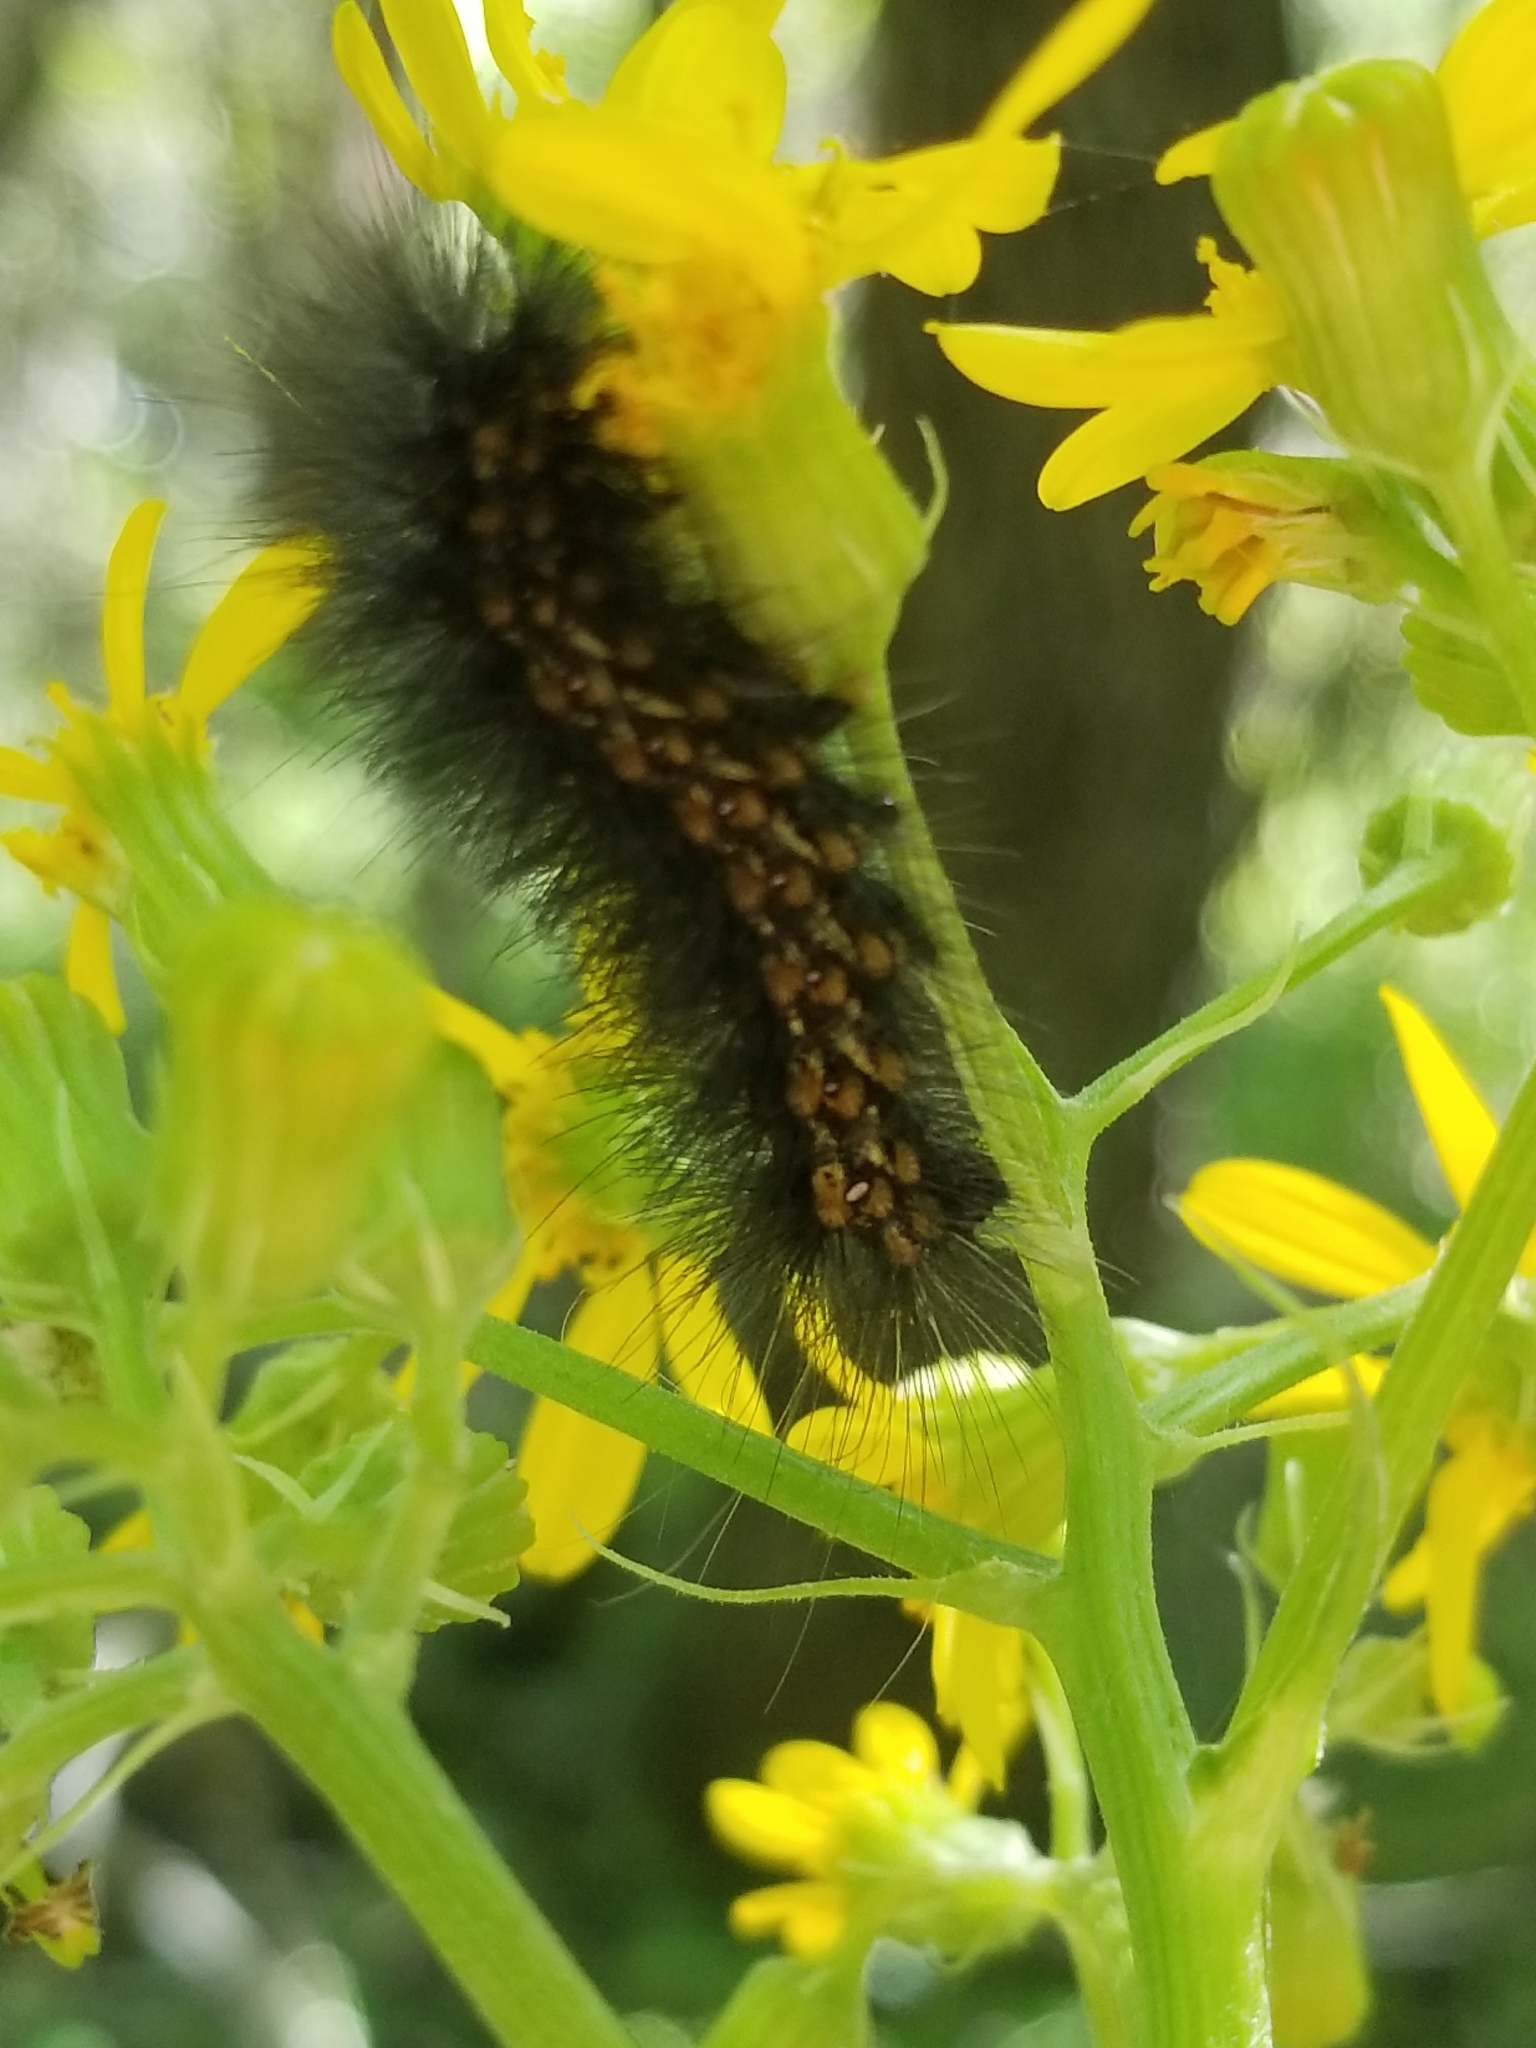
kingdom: Animalia
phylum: Arthropoda
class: Insecta
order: Lepidoptera
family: Erebidae
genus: Estigmene
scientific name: Estigmene acrea
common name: Salt marsh moth
